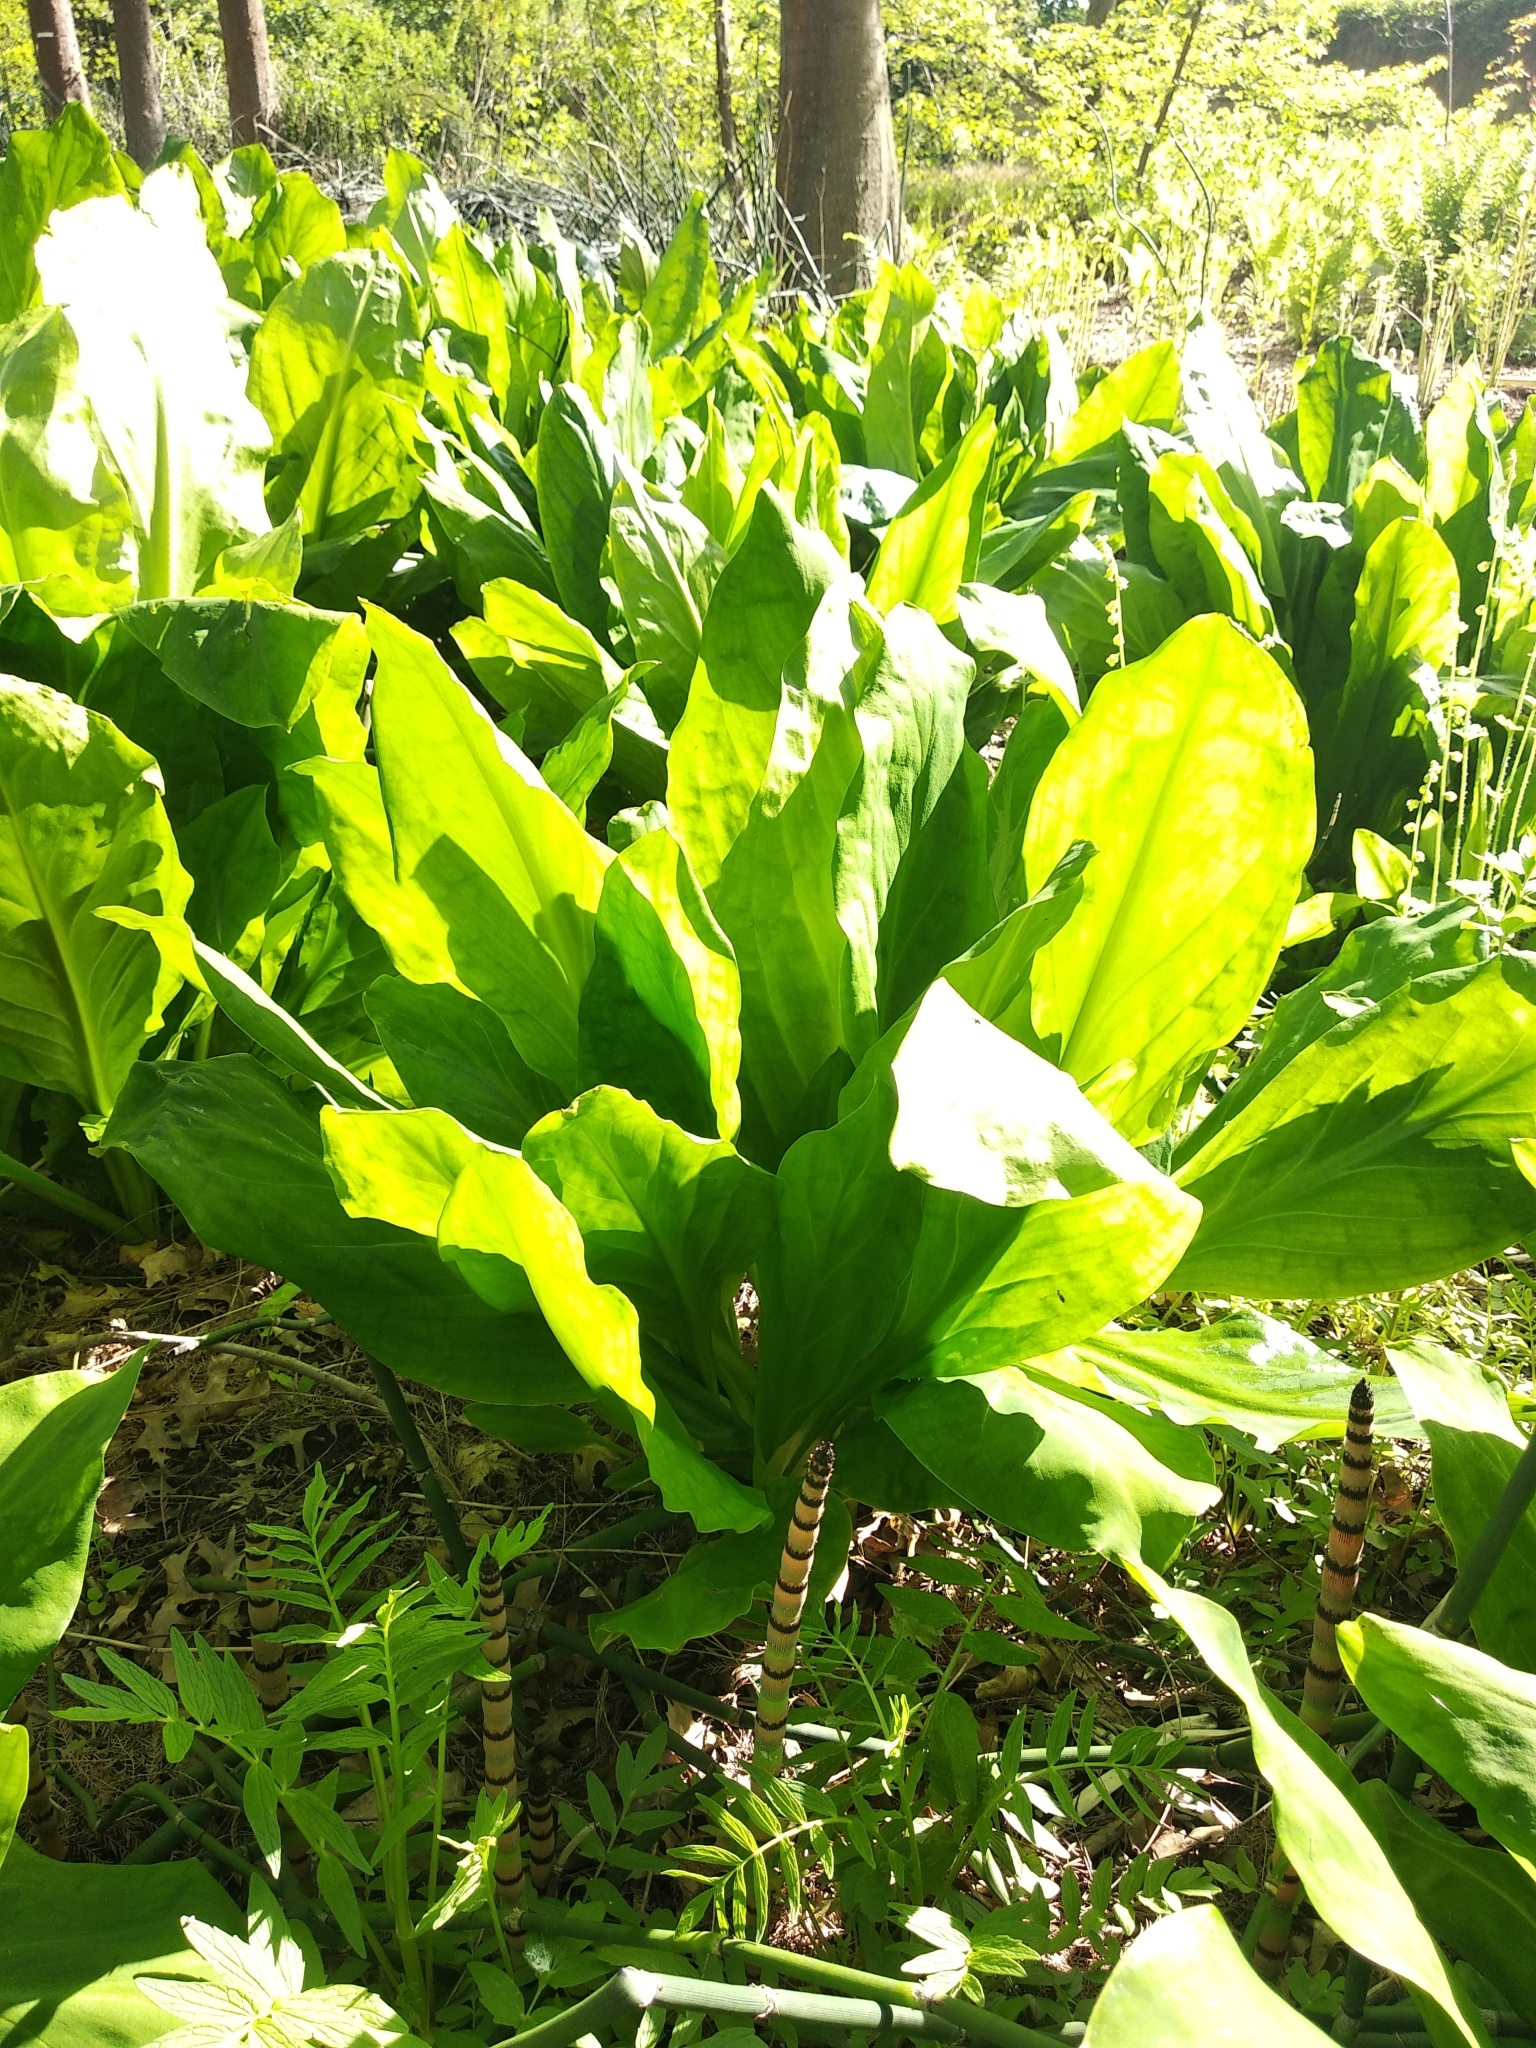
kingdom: Plantae
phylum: Tracheophyta
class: Liliopsida
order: Alismatales
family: Araceae
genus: Lysichiton
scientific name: Lysichiton americanus
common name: American skunk cabbage
